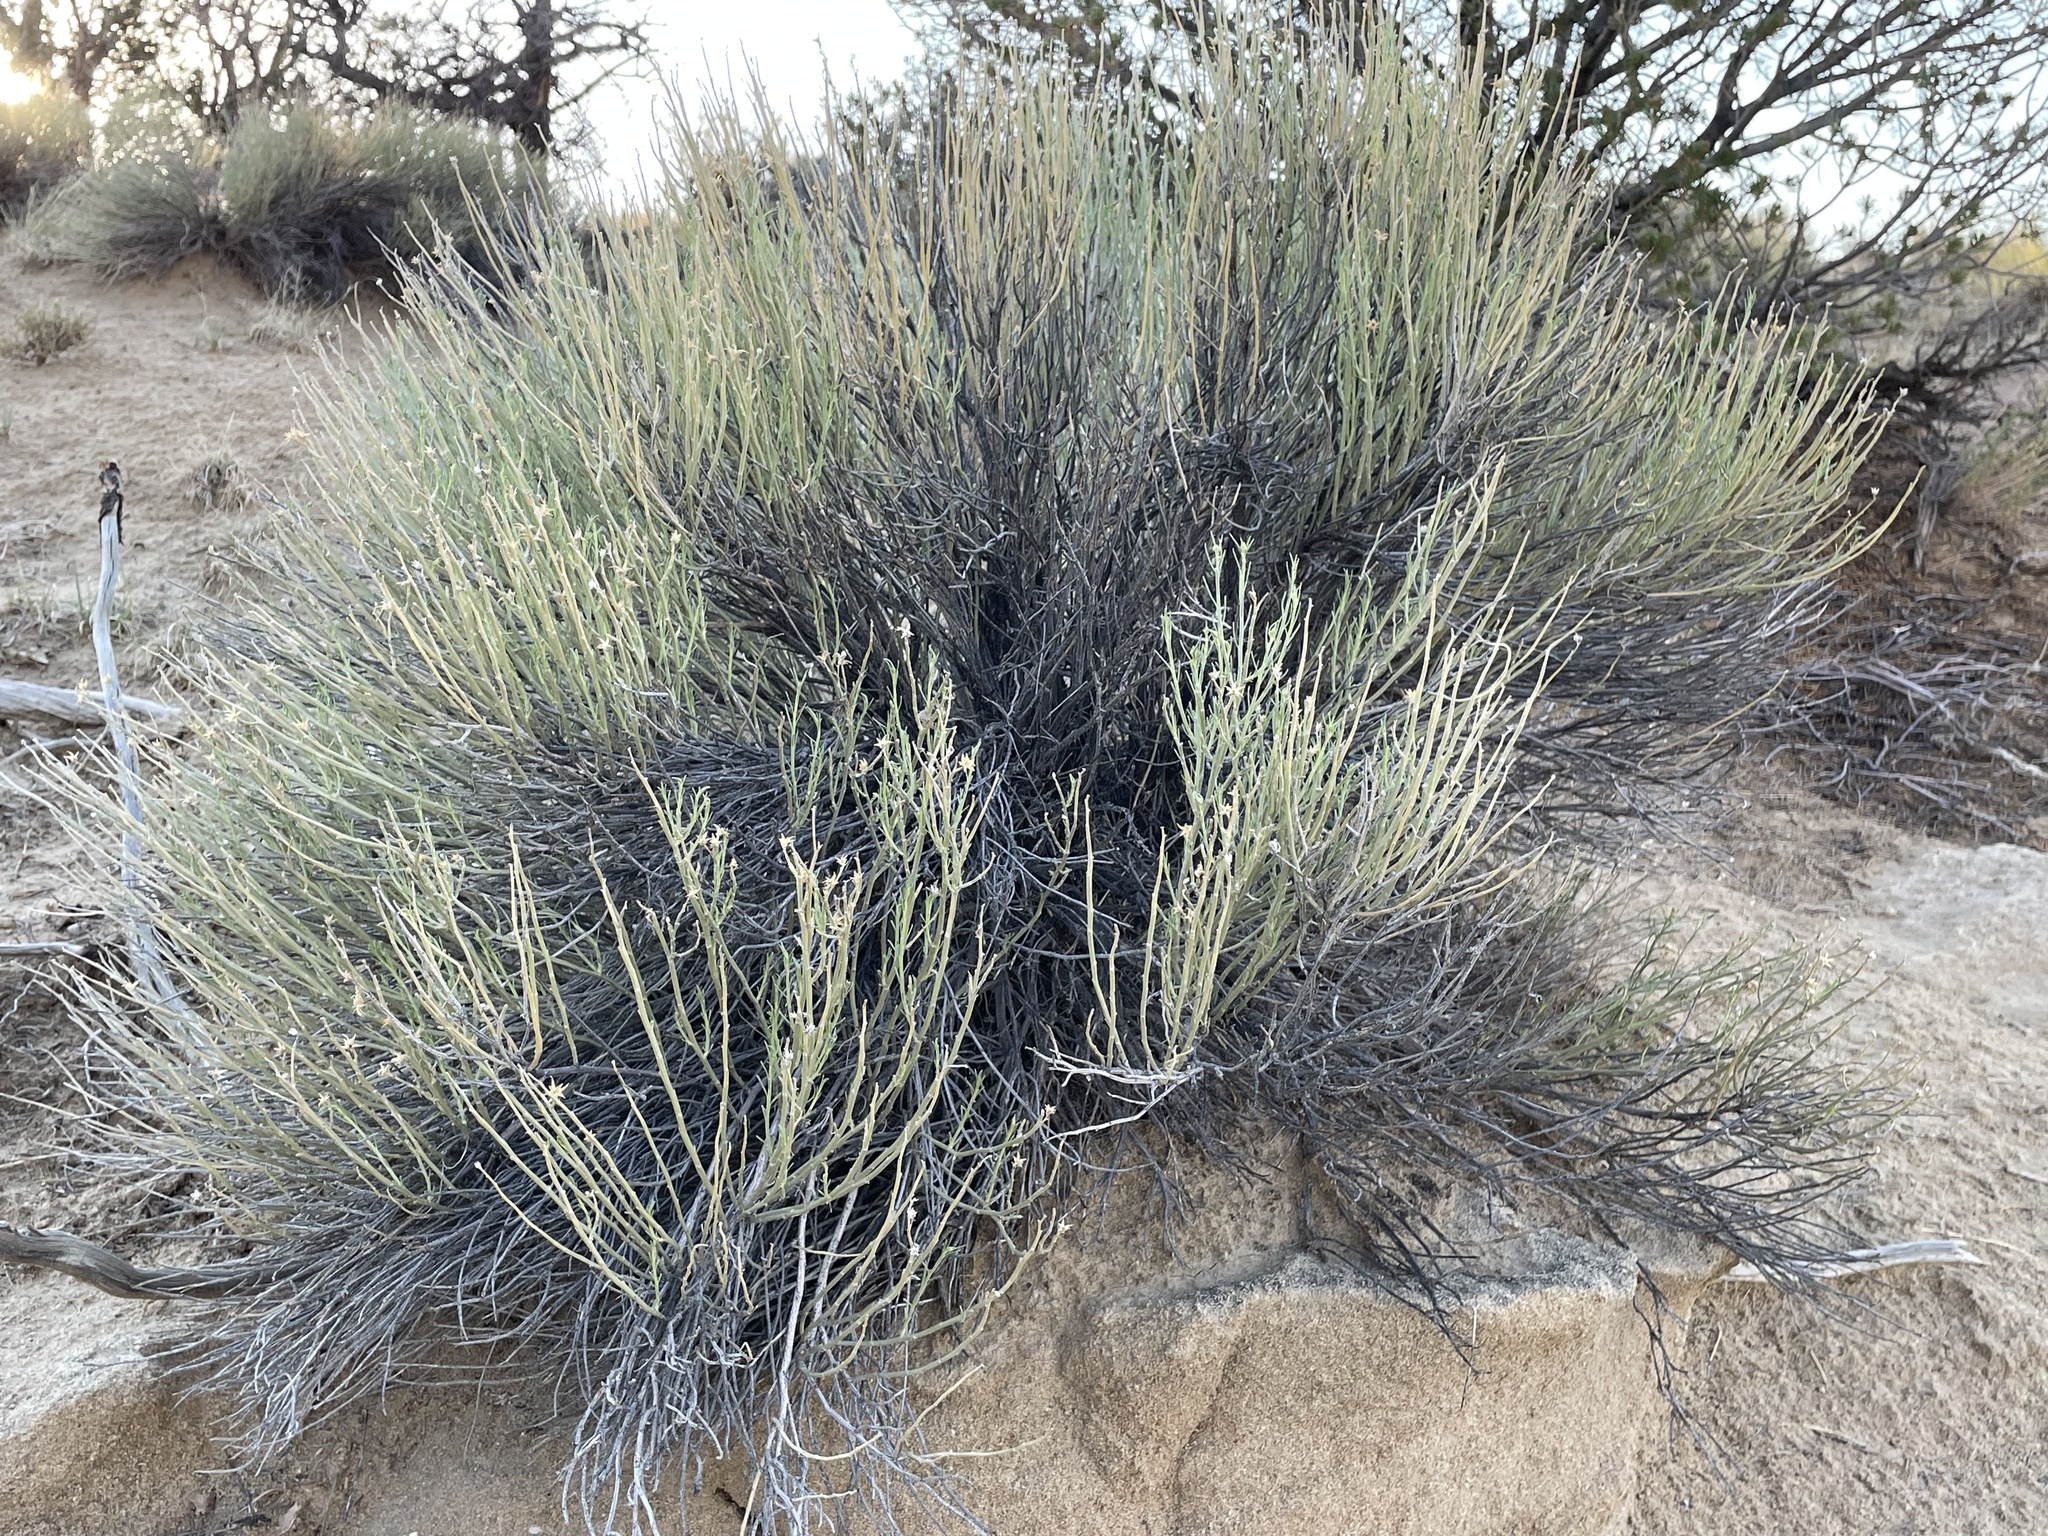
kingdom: Plantae
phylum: Tracheophyta
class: Magnoliopsida
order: Asterales
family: Asteraceae
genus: Ericameria
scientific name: Ericameria nauseosa
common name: Rubber rabbitbrush
